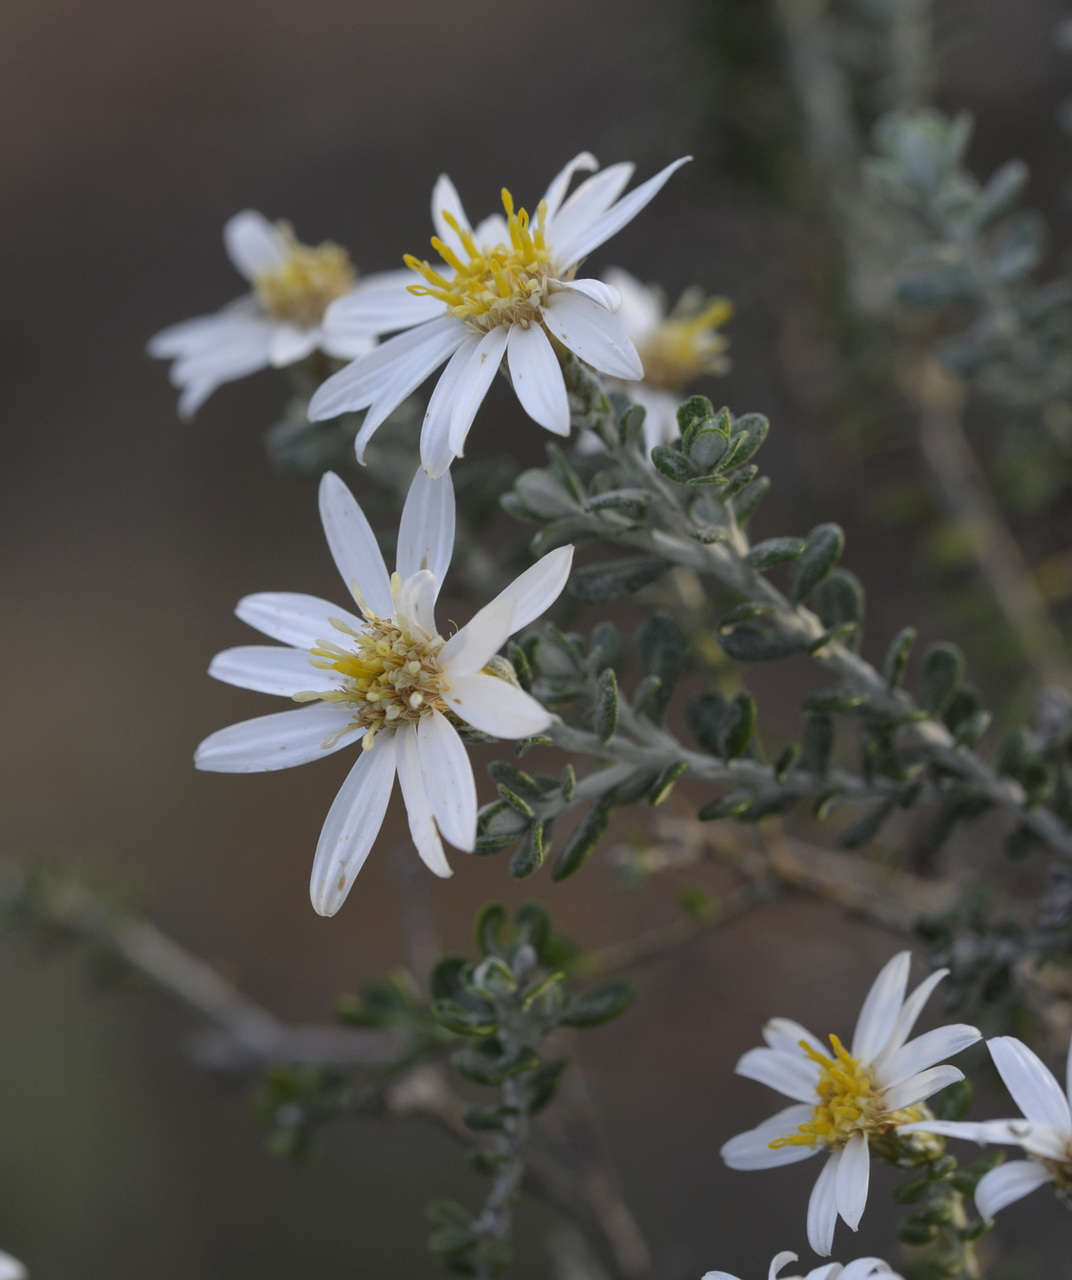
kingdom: Plantae
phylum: Tracheophyta
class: Magnoliopsida
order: Asterales
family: Asteraceae
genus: Olearia
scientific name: Olearia pimeleoides
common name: Showy daisybush
